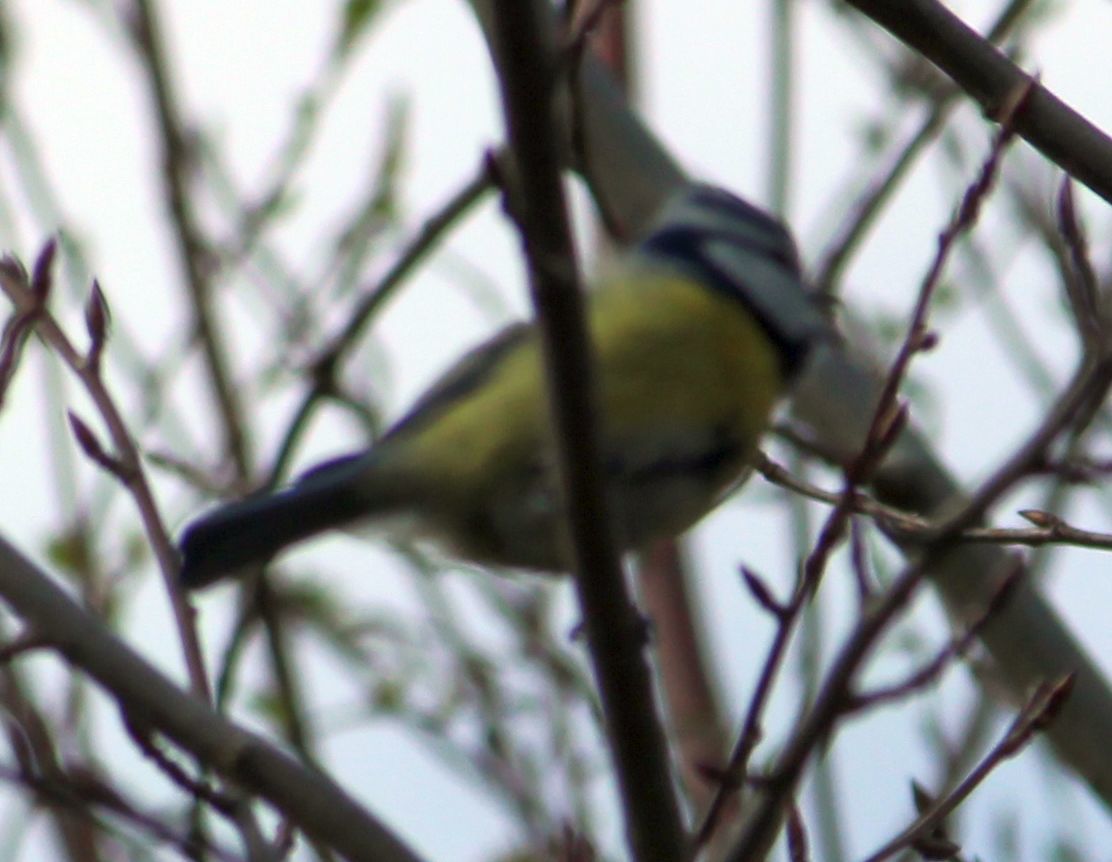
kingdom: Animalia
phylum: Chordata
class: Aves
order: Passeriformes
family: Paridae
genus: Cyanistes
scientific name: Cyanistes caeruleus
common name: Eurasian blue tit
